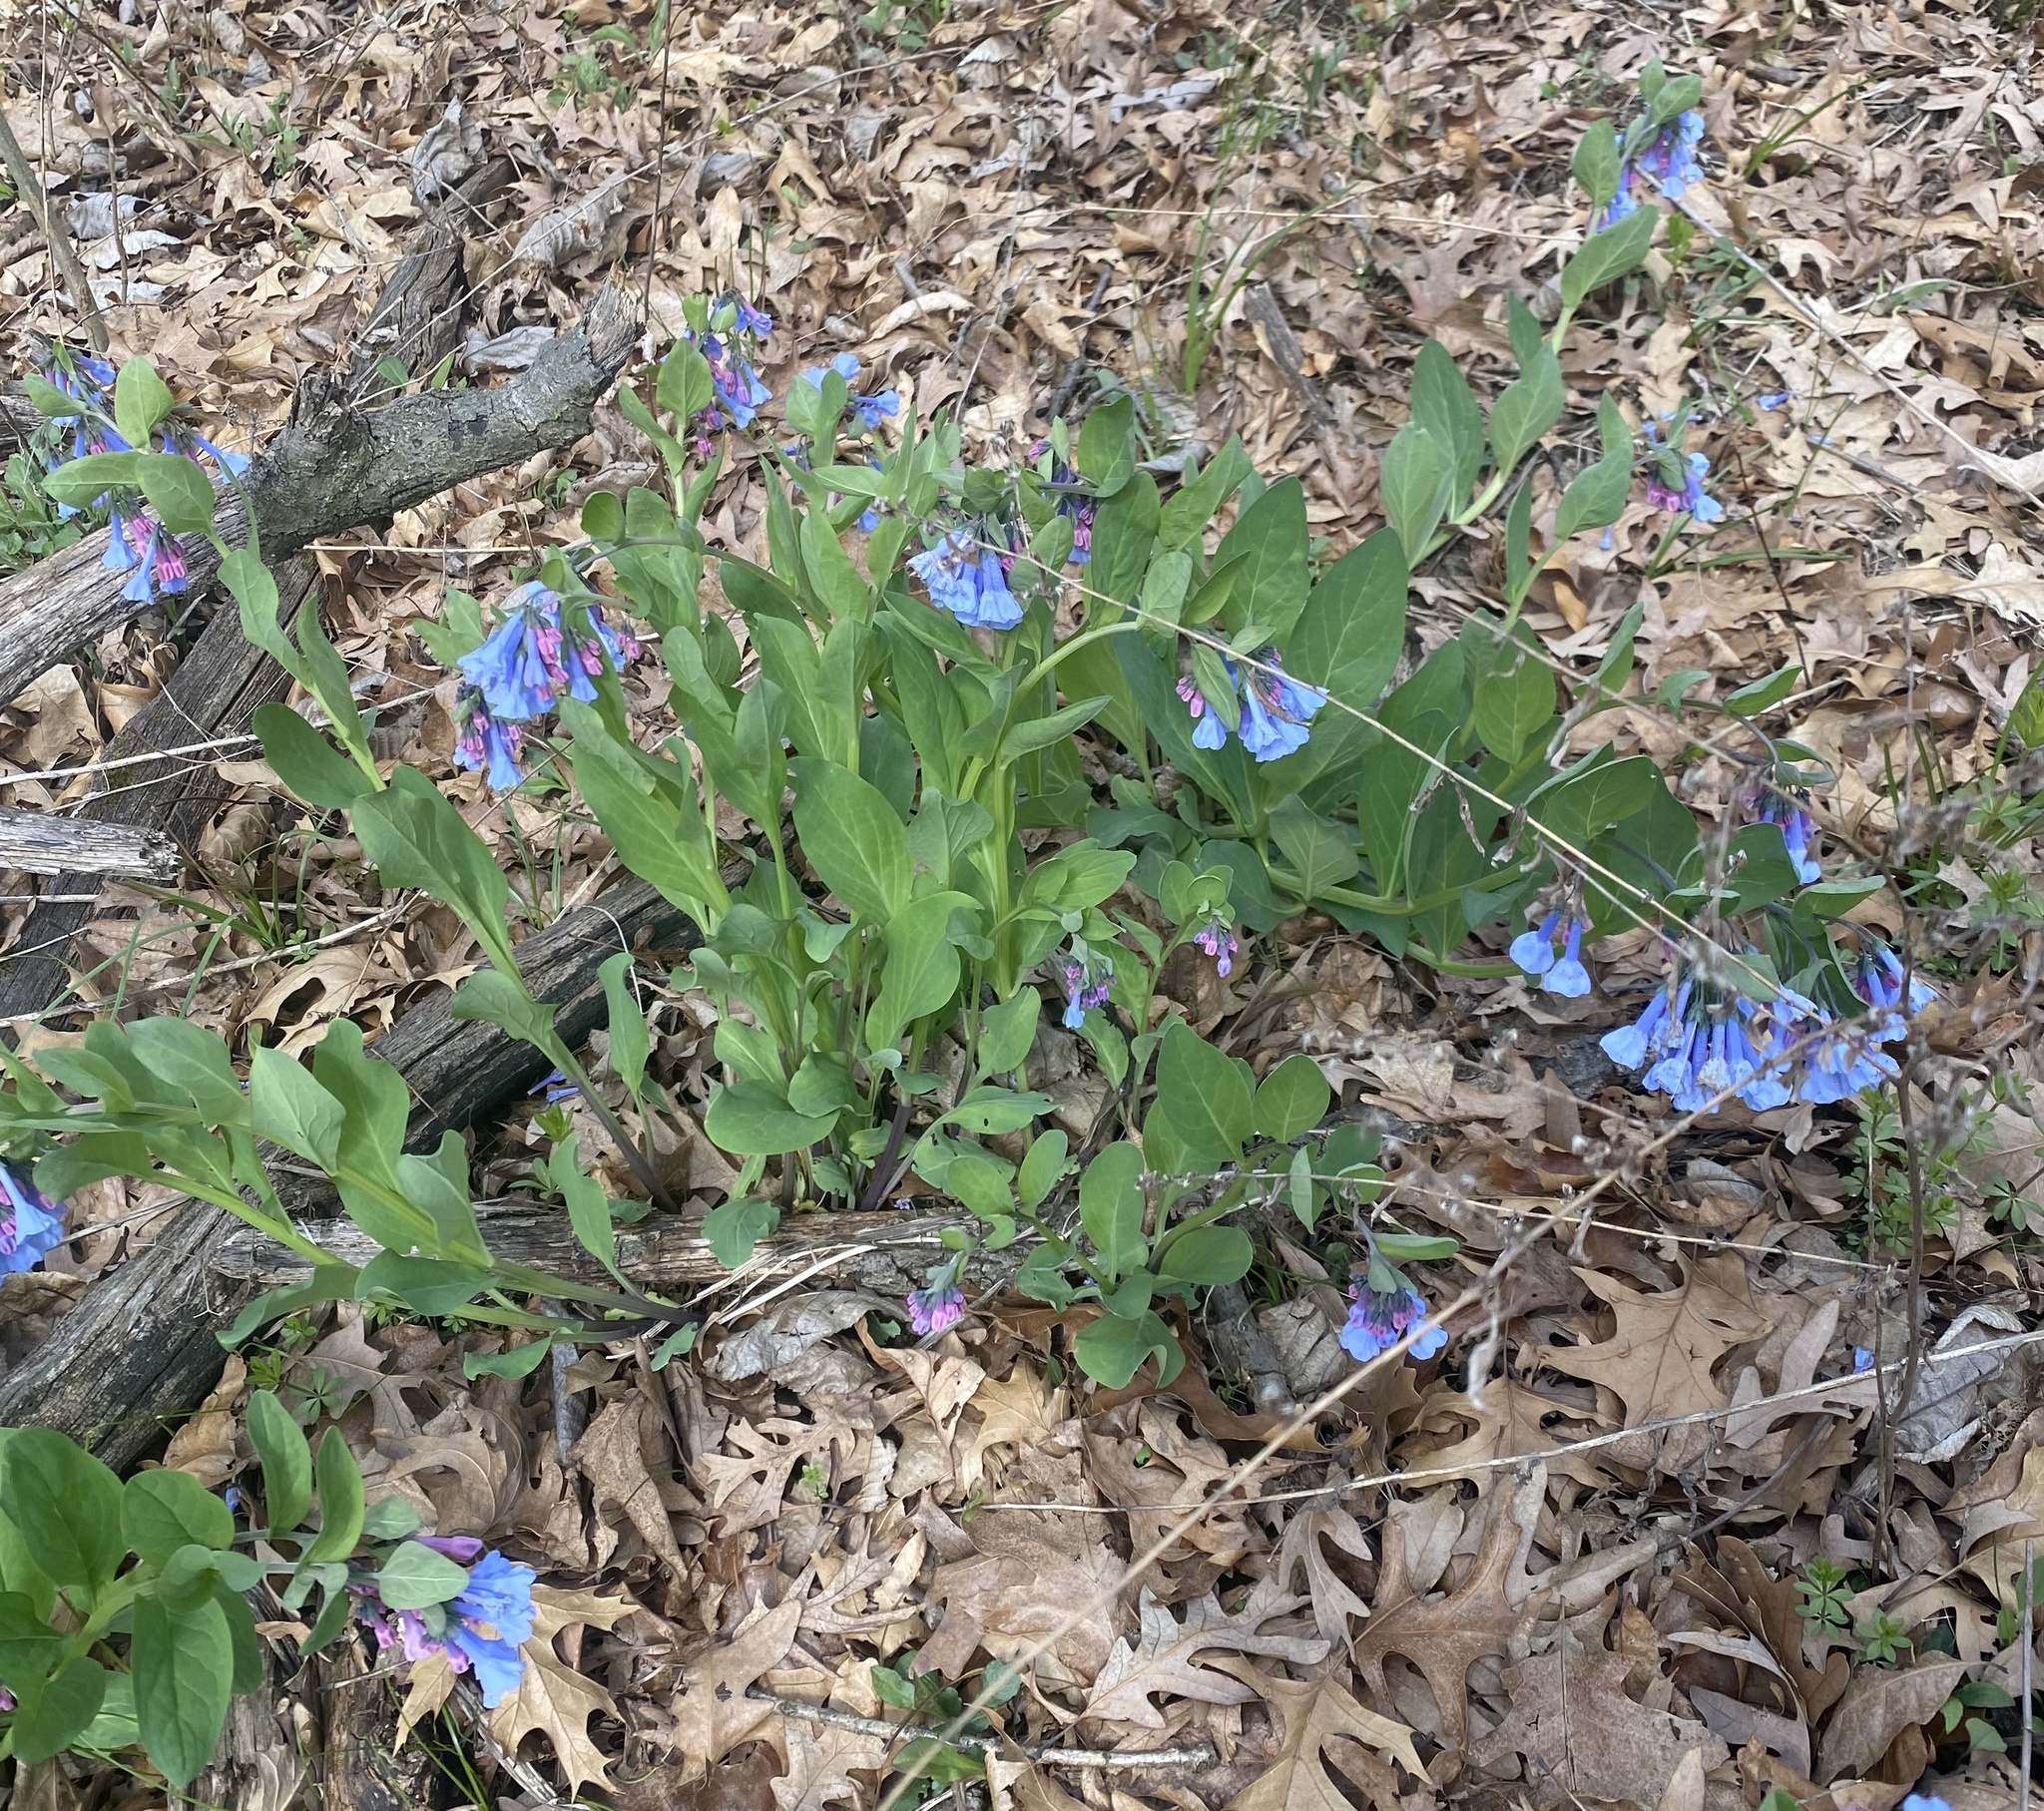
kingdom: Plantae
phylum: Tracheophyta
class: Magnoliopsida
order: Boraginales
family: Boraginaceae
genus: Mertensia
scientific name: Mertensia virginica
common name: Virginia bluebells
